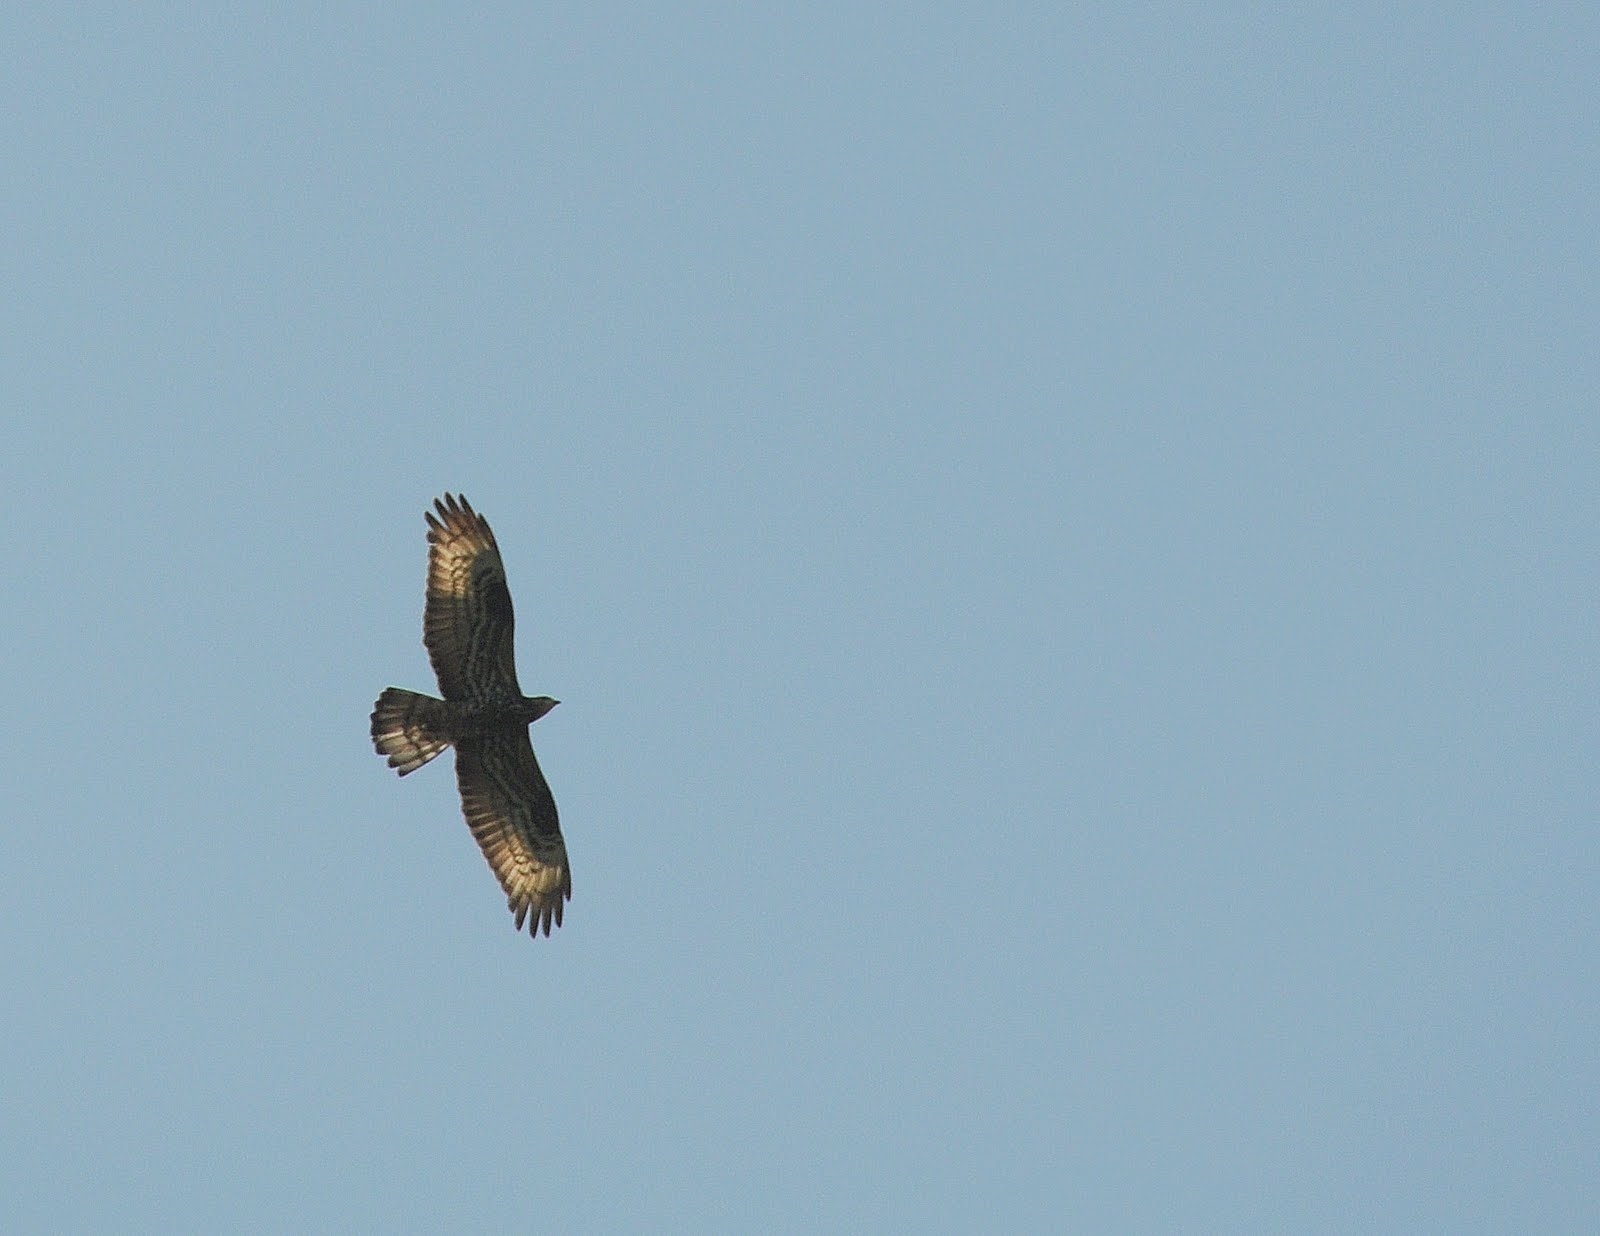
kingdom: Animalia
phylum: Chordata
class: Aves
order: Accipitriformes
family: Accipitridae
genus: Pernis
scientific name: Pernis apivorus
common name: European honey buzzard
